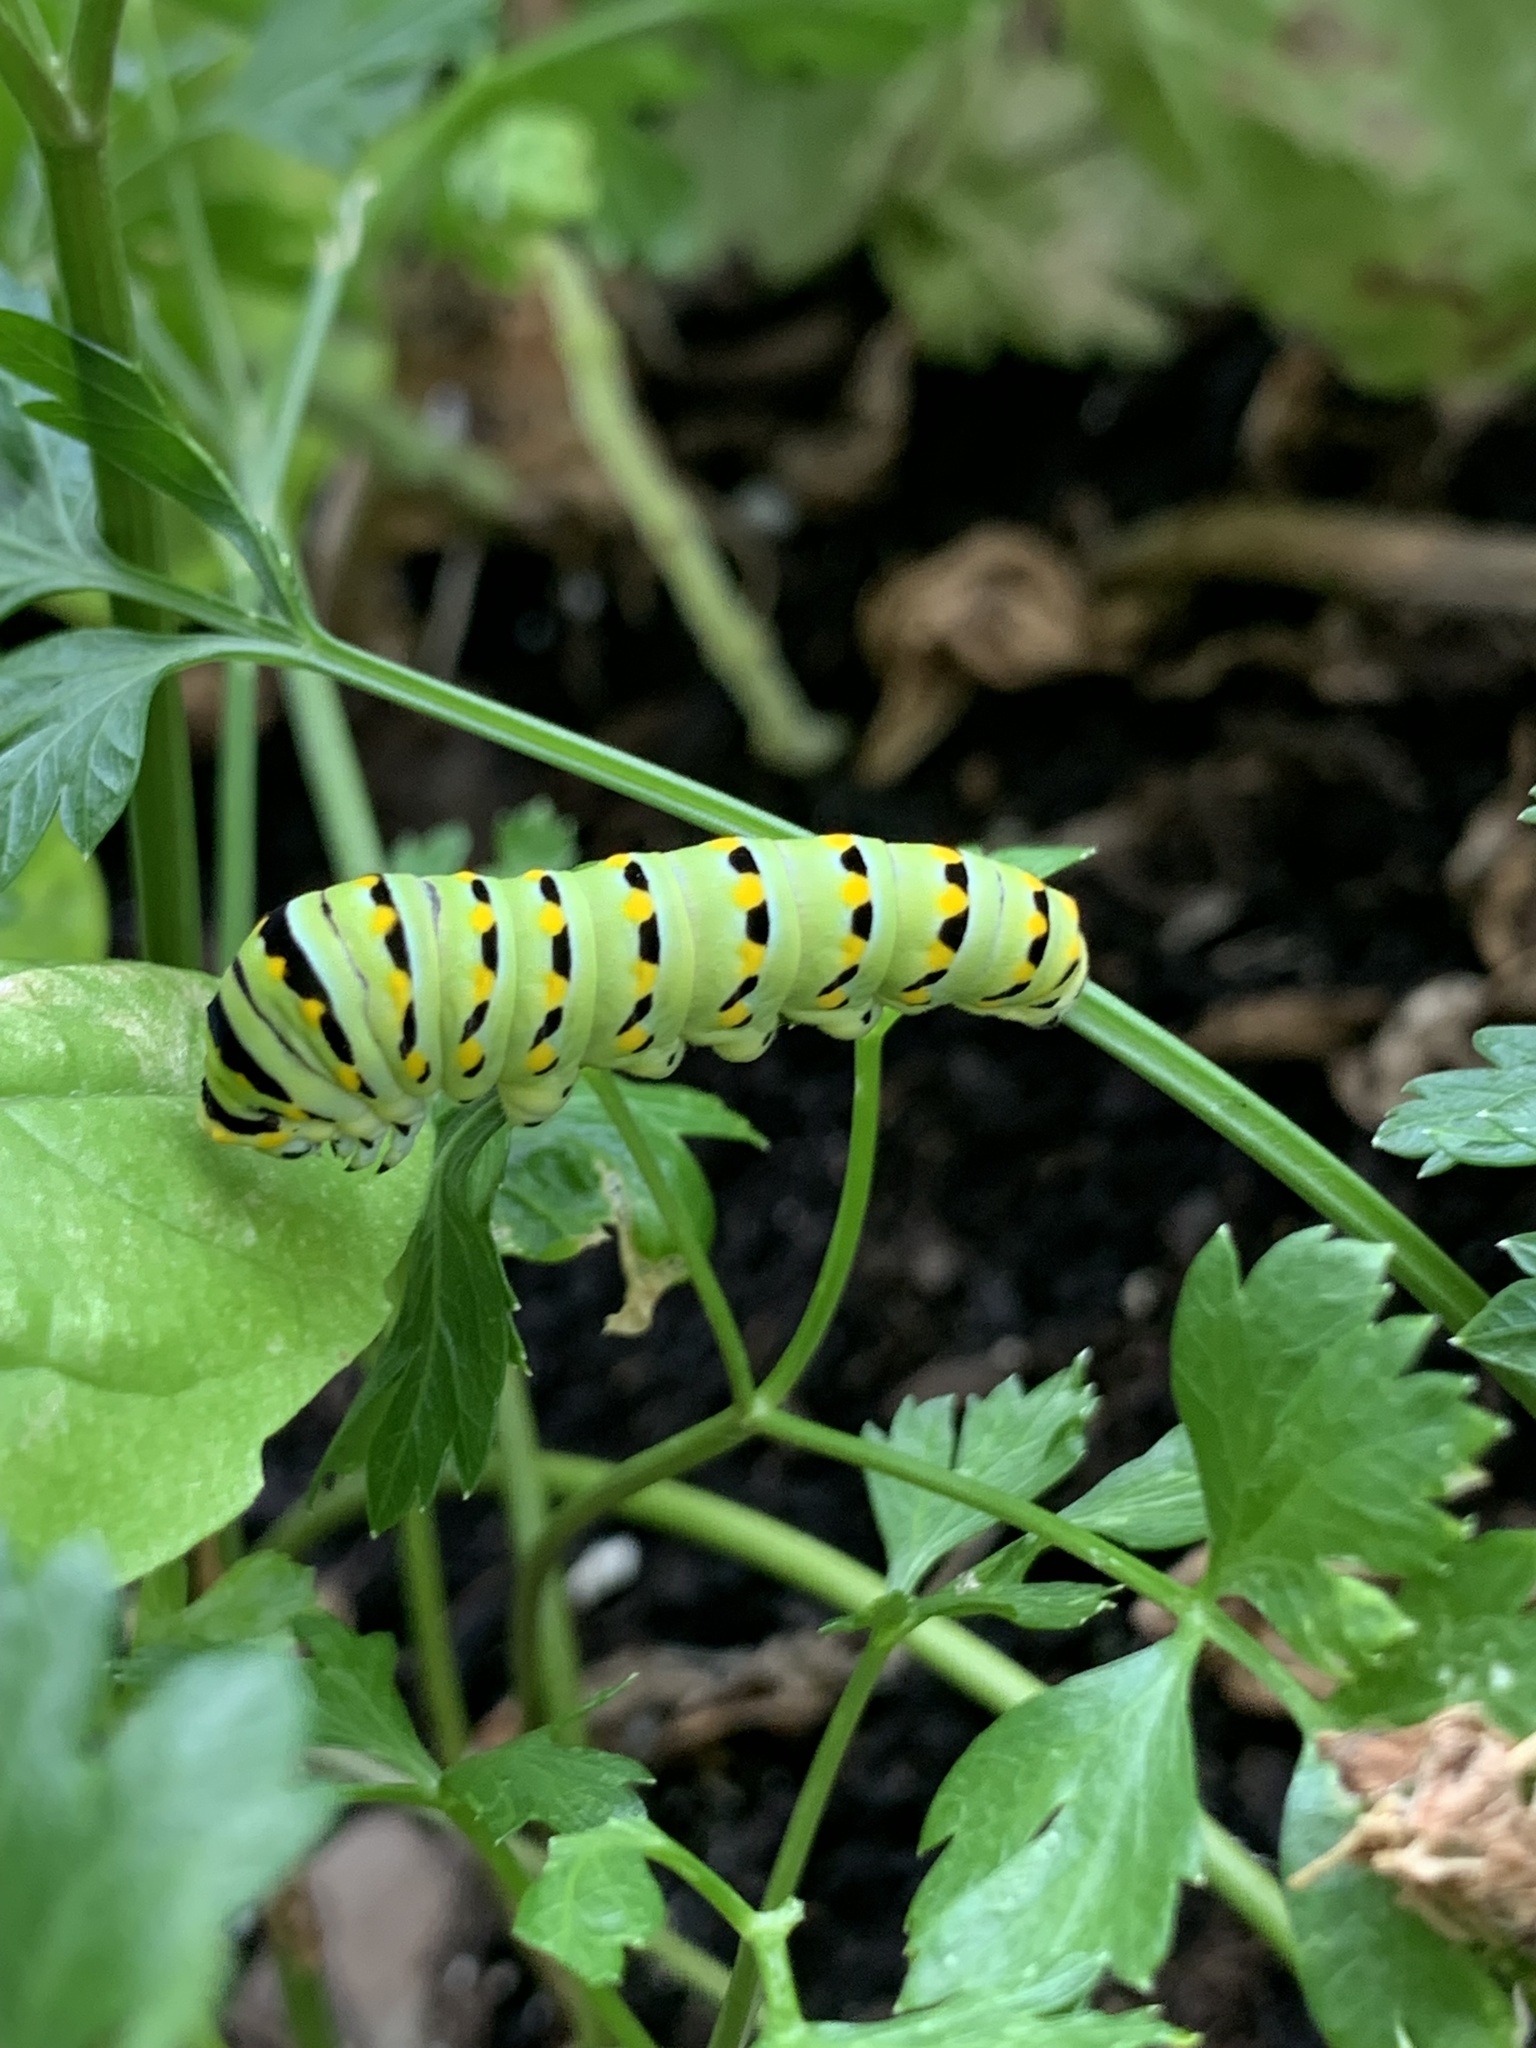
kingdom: Animalia
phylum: Arthropoda
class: Insecta
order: Lepidoptera
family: Papilionidae
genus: Papilio
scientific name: Papilio polyxenes
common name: Black swallowtail
